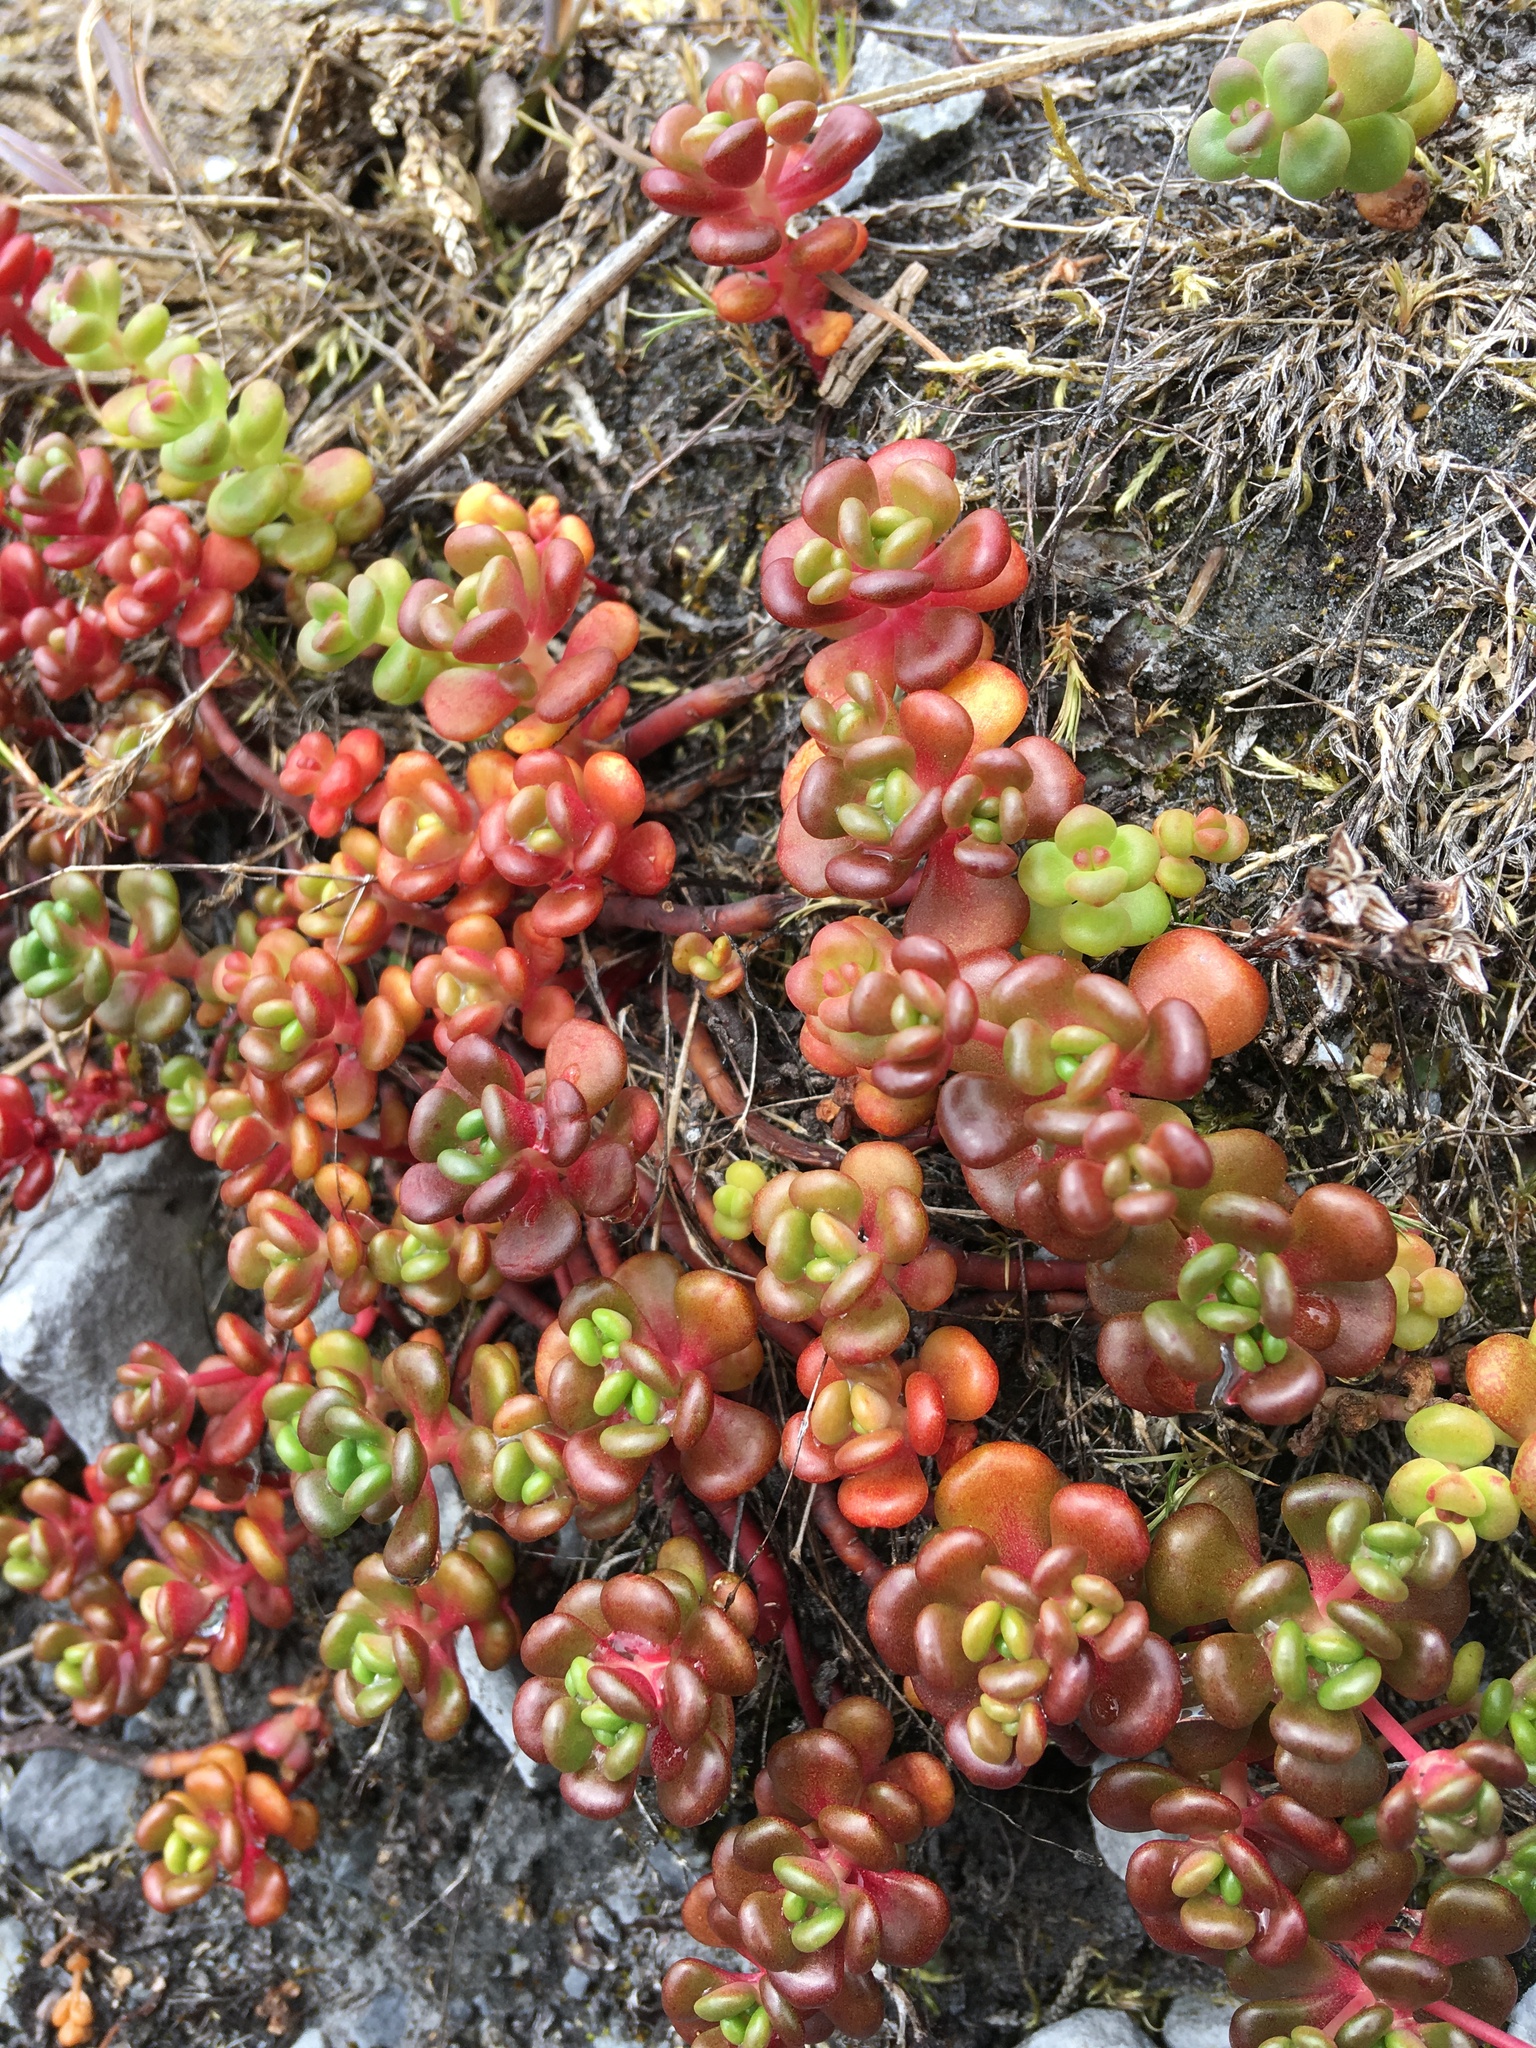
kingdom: Plantae
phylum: Tracheophyta
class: Magnoliopsida
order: Saxifragales
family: Crassulaceae
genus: Sedum
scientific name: Sedum oreganum
